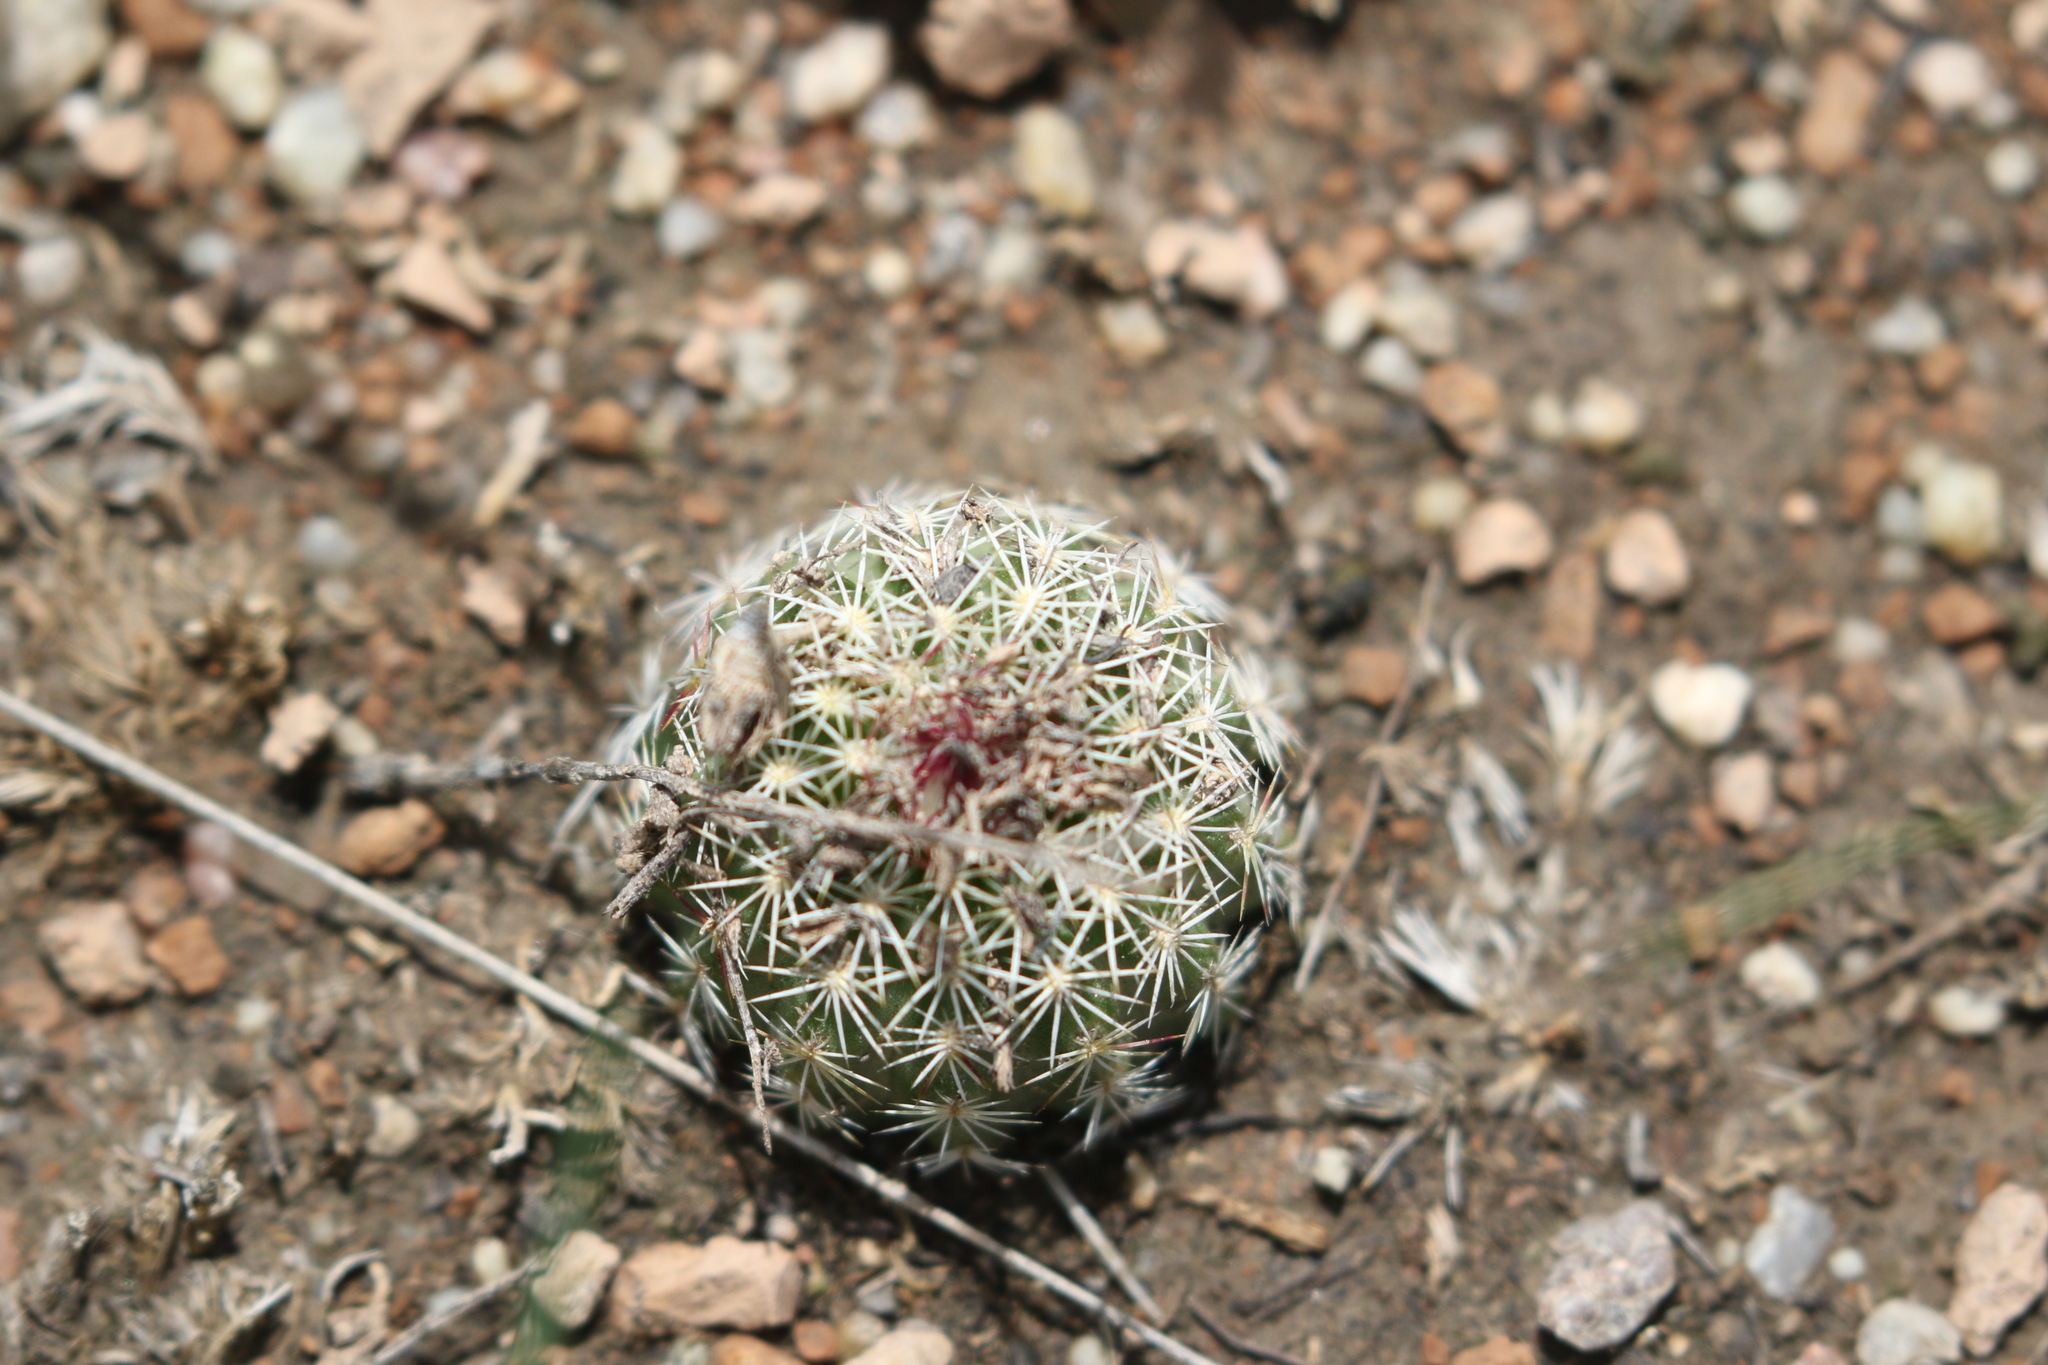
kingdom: Plantae
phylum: Tracheophyta
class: Magnoliopsida
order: Caryophyllales
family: Cactaceae
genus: Echinocereus
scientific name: Echinocereus viridiflorus
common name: Nylon hedgehog cactus
